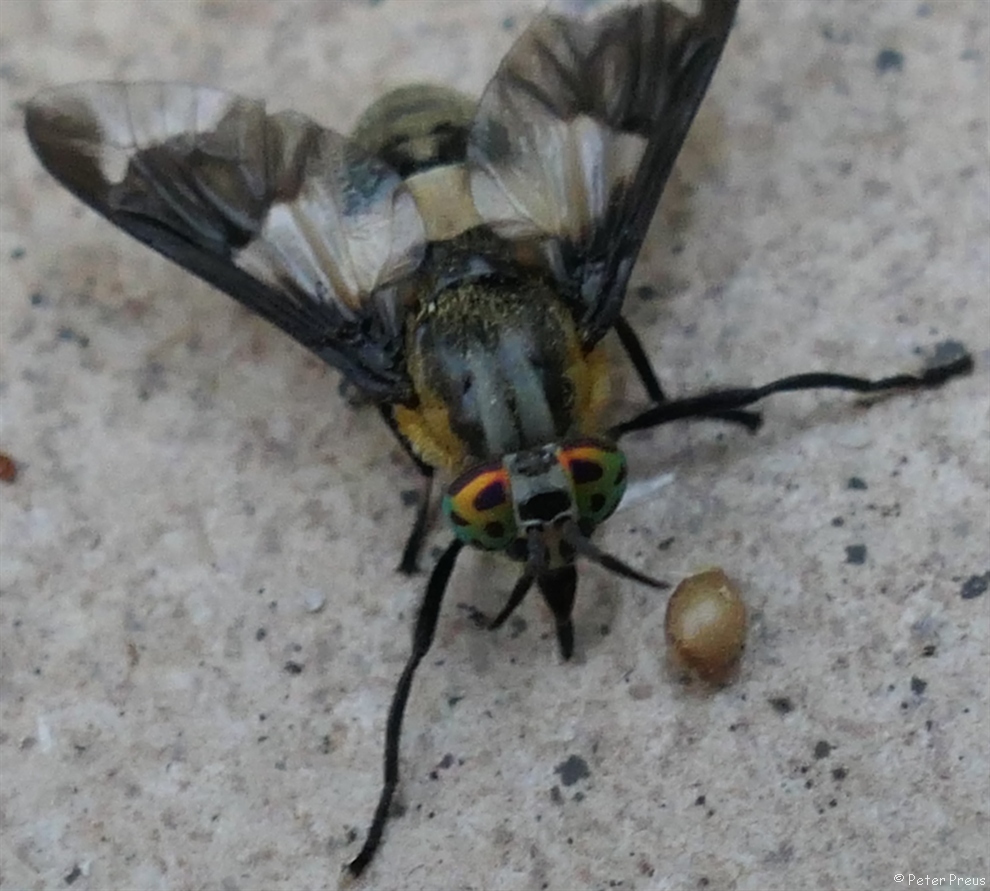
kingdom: Animalia
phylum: Arthropoda
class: Insecta
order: Diptera
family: Tabanidae
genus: Chrysops
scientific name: Chrysops caecutiens
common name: Splayed deerfly
